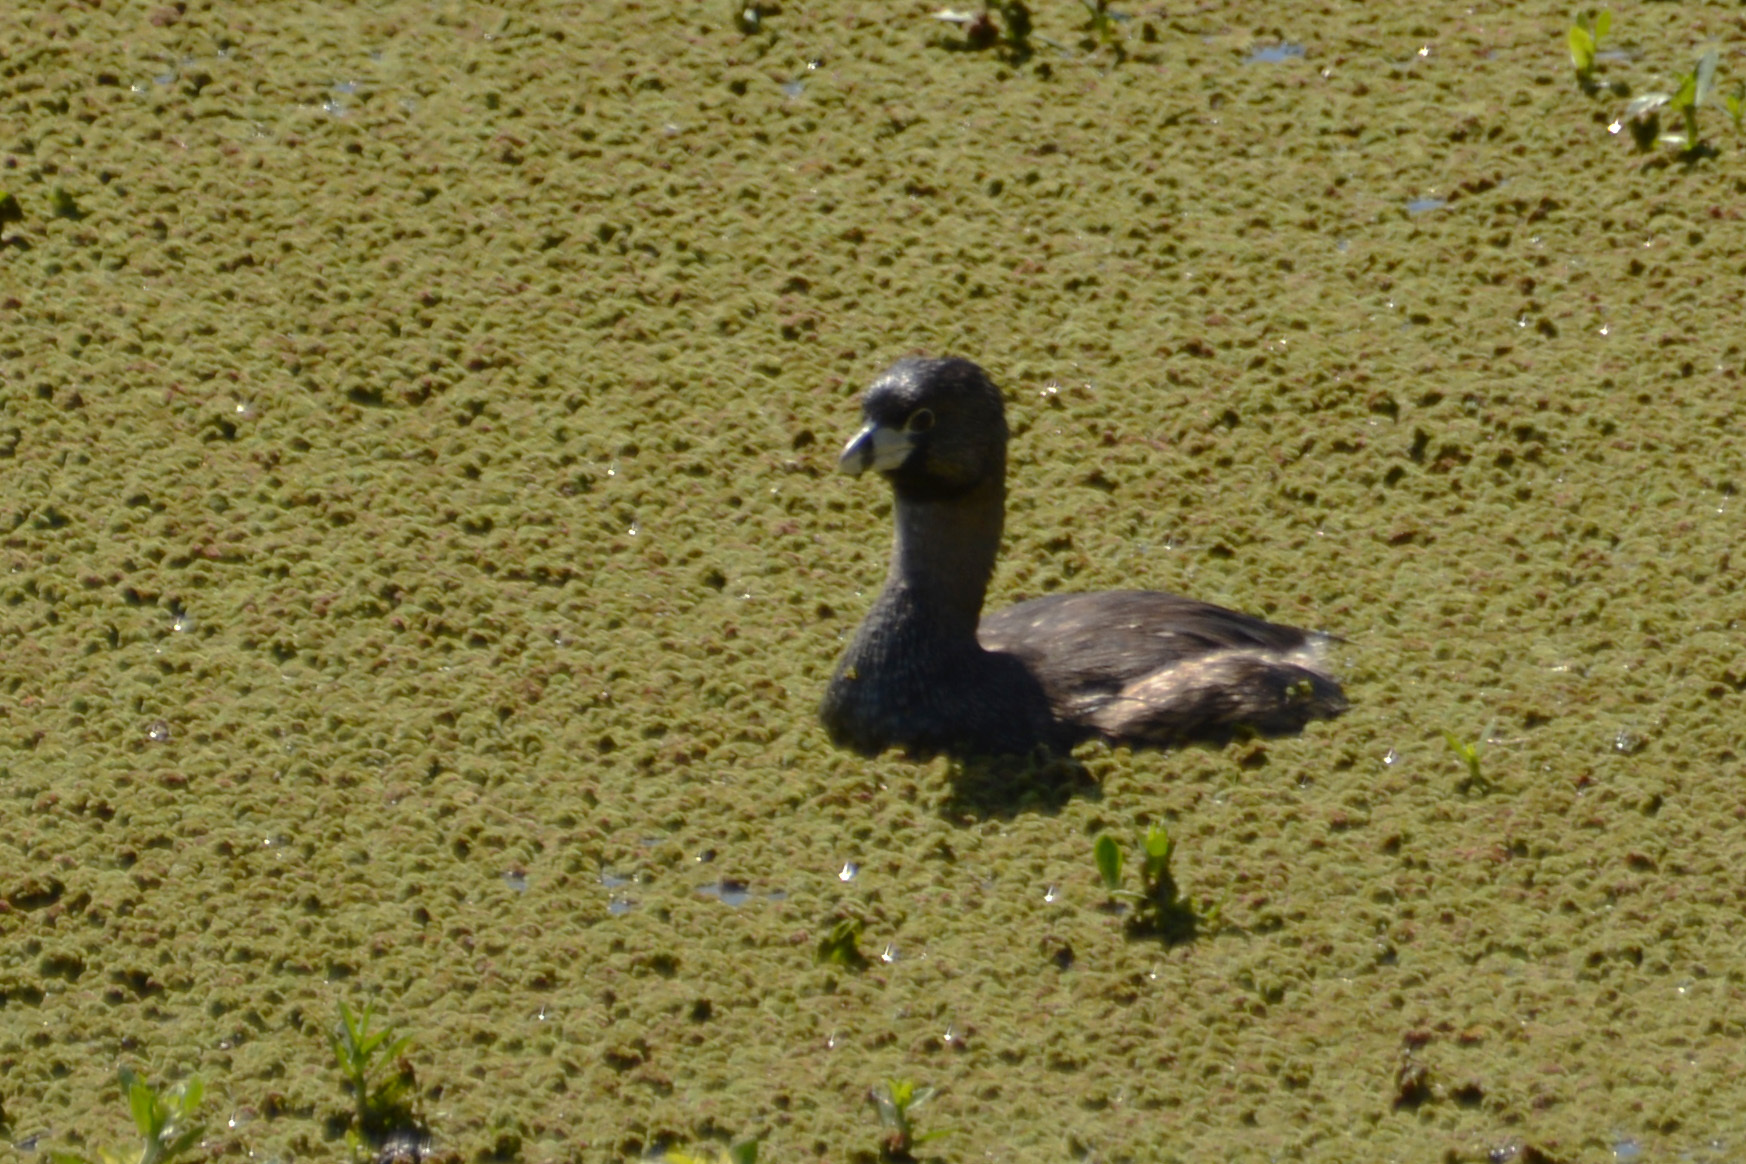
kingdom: Animalia
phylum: Chordata
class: Aves
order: Podicipediformes
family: Podicipedidae
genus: Podilymbus
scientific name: Podilymbus podiceps
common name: Pied-billed grebe
